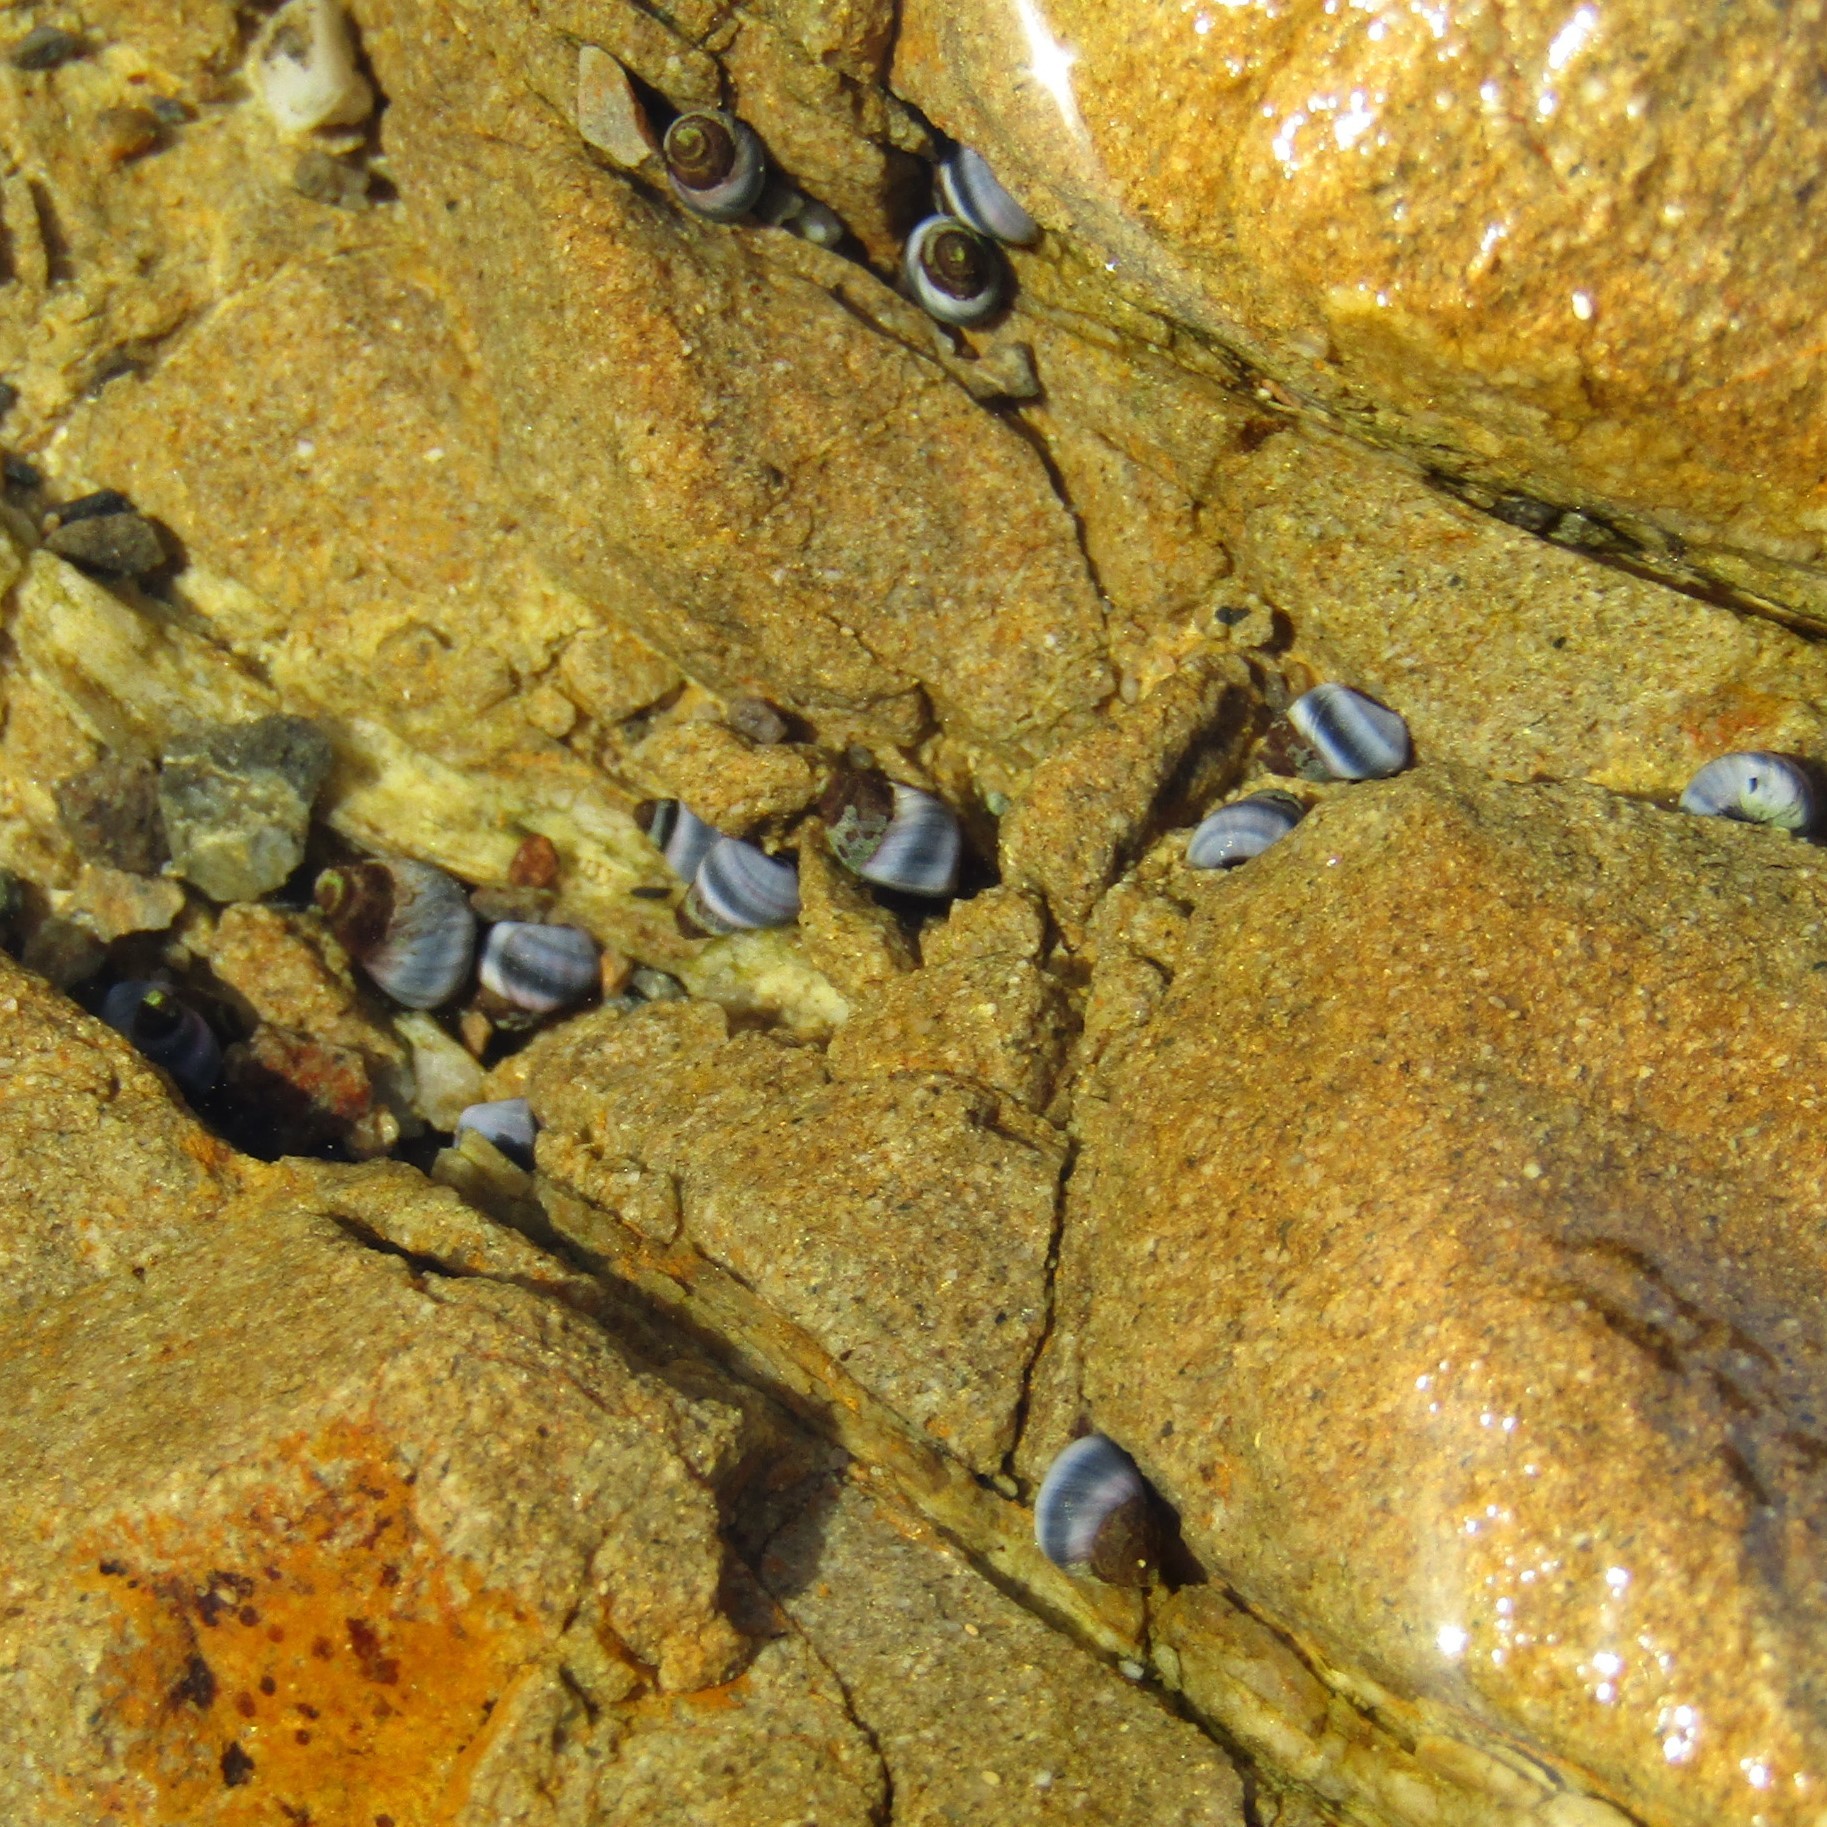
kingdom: Animalia
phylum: Mollusca
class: Gastropoda
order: Littorinimorpha
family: Littorinidae
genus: Austrolittorina
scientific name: Austrolittorina antipodum
